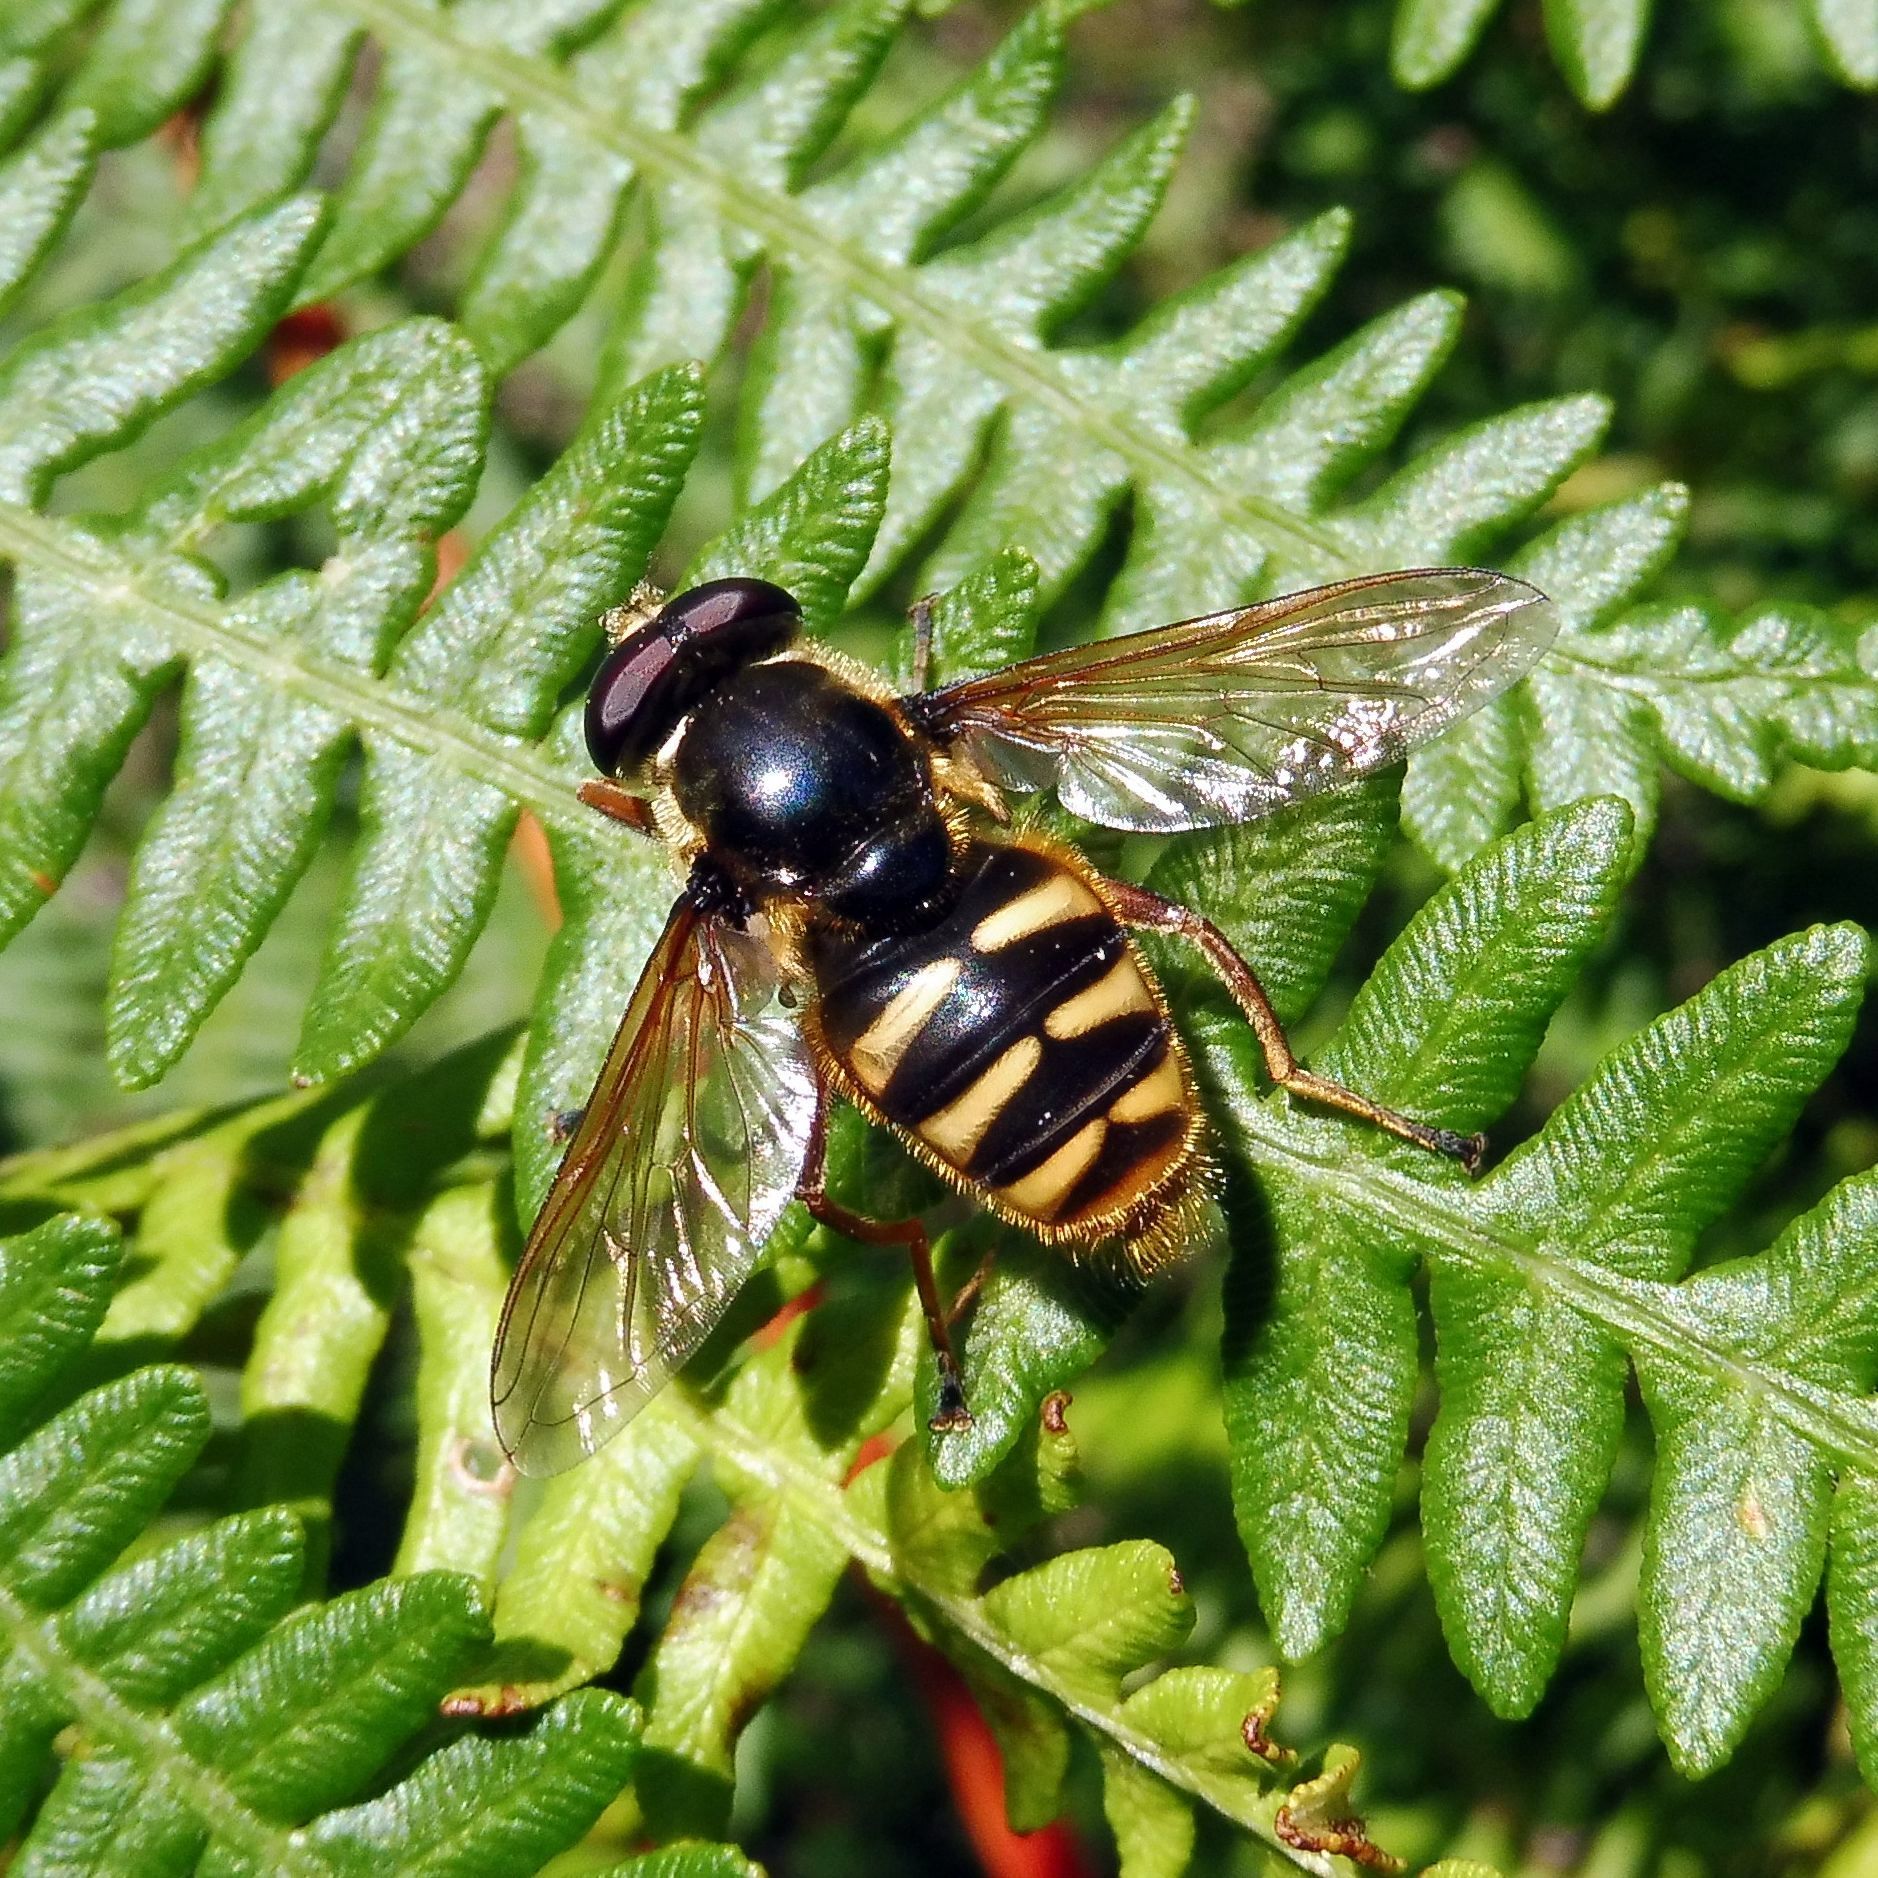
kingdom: Animalia
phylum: Arthropoda
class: Insecta
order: Diptera
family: Syrphidae
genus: Sericomyia
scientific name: Sericomyia silentis
